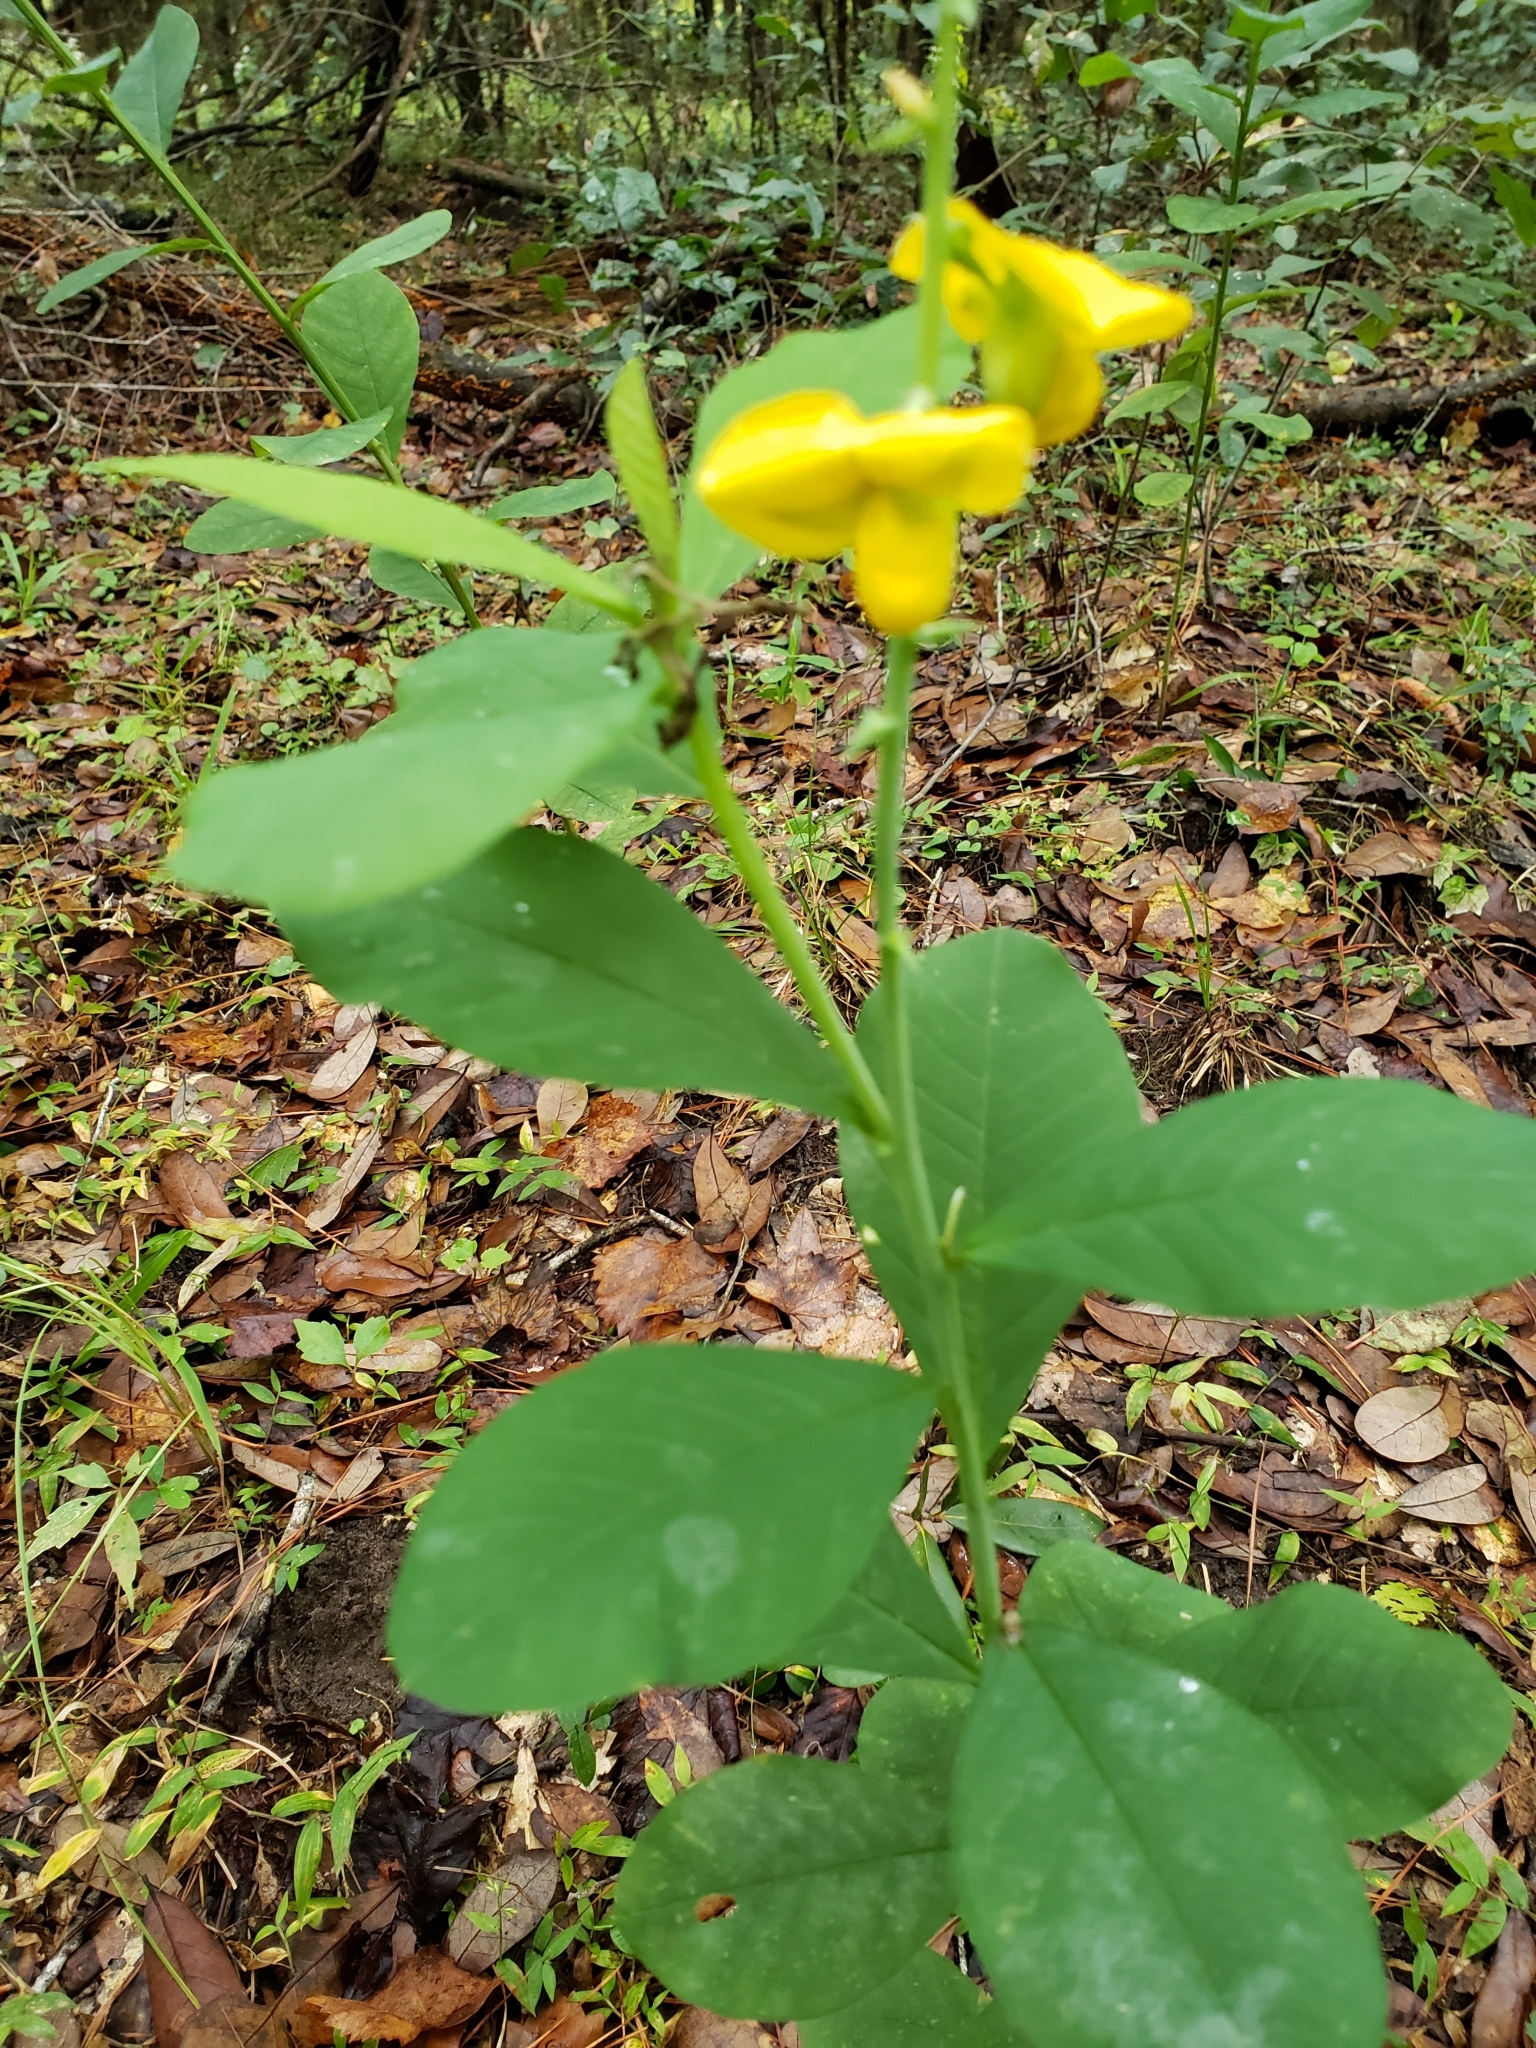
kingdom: Plantae
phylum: Tracheophyta
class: Magnoliopsida
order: Fabales
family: Fabaceae
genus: Crotalaria
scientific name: Crotalaria spectabilis
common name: Showy rattlebox
